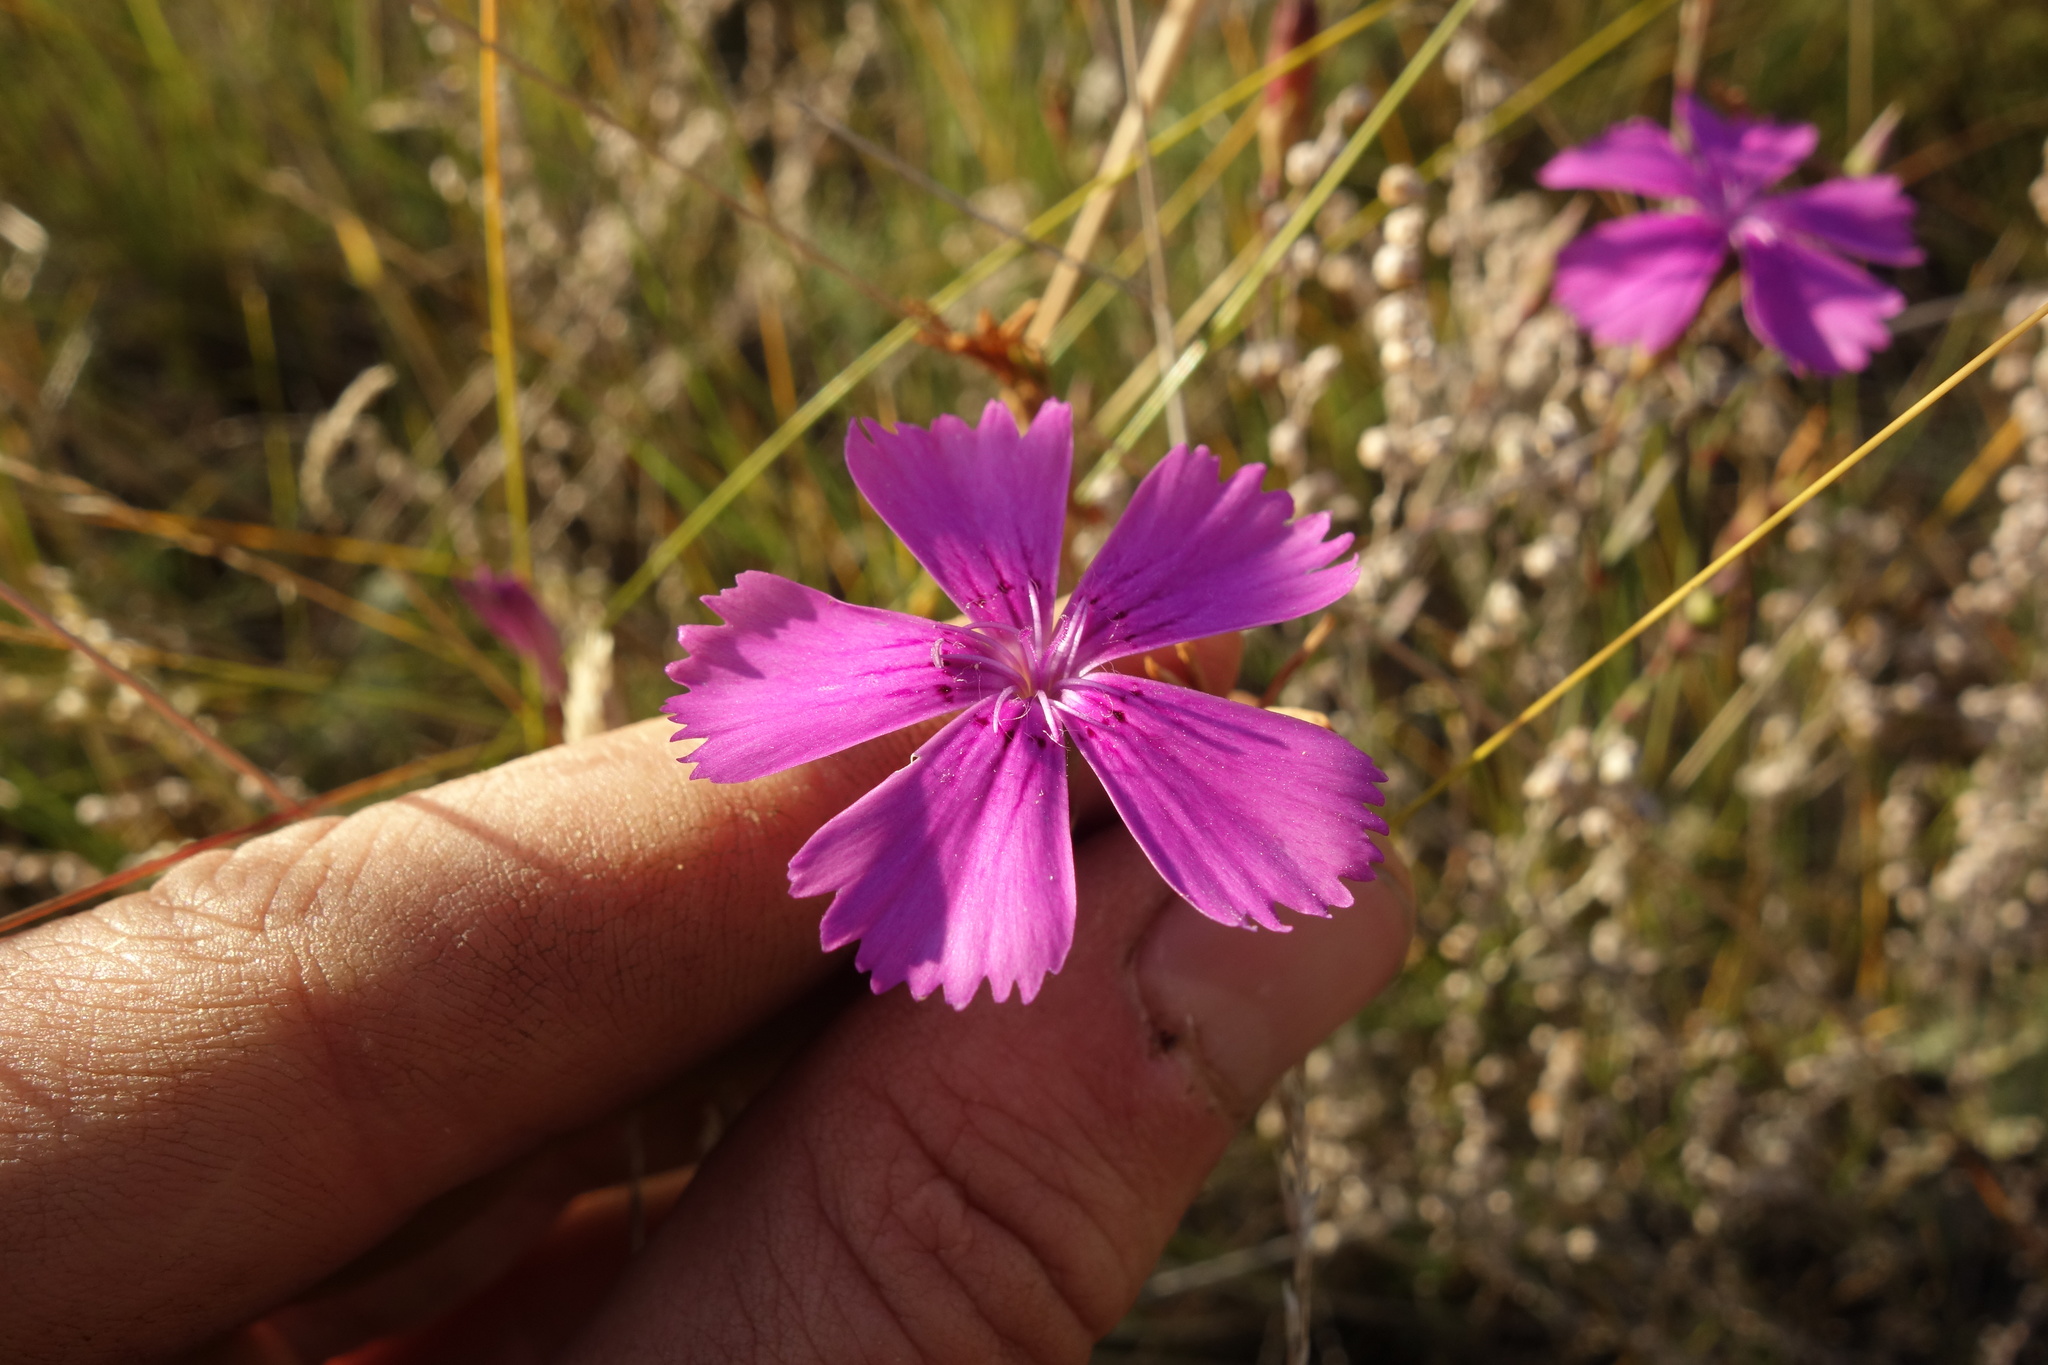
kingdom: Plantae
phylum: Tracheophyta
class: Magnoliopsida
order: Caryophyllales
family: Caryophyllaceae
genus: Dianthus
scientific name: Dianthus chinensis
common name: Rainbow pink
